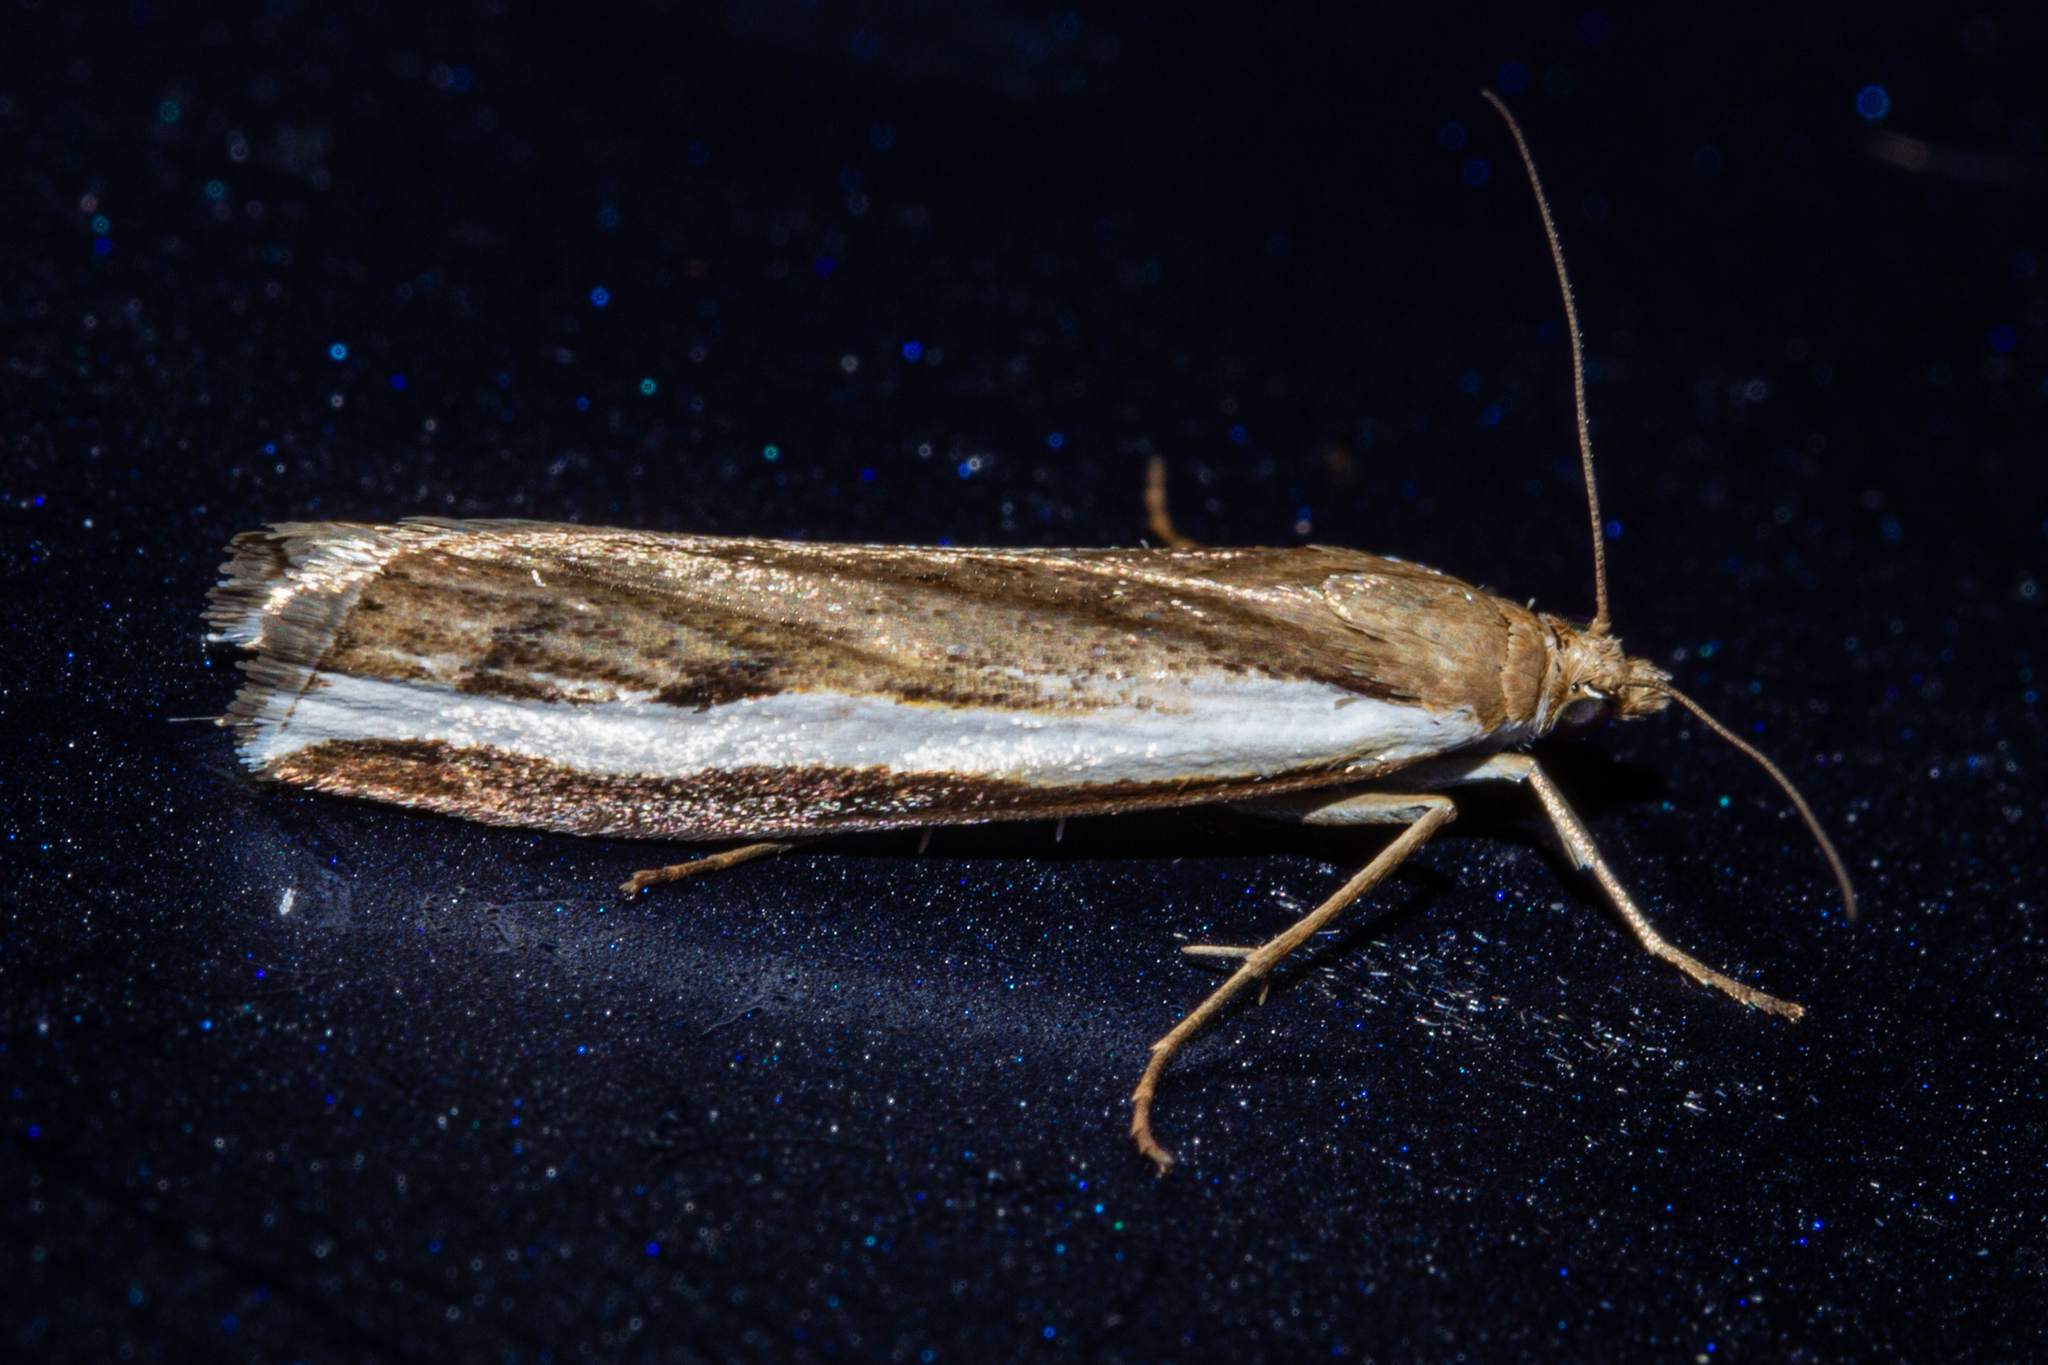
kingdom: Animalia
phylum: Arthropoda
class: Insecta
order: Lepidoptera
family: Crambidae
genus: Orocrambus
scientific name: Orocrambus flexuosellus
